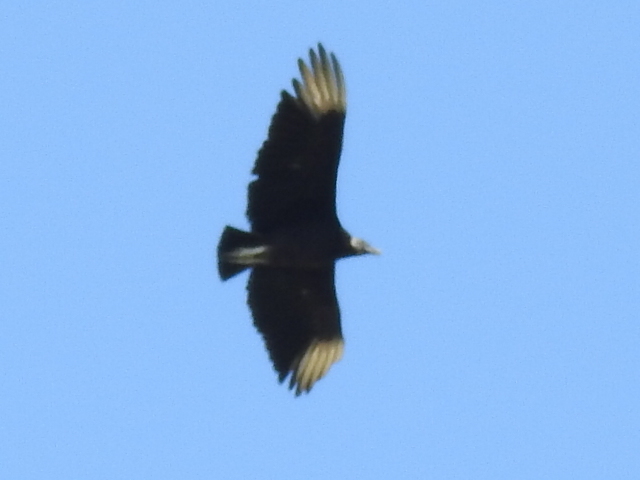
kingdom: Animalia
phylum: Chordata
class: Aves
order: Accipitriformes
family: Cathartidae
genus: Coragyps
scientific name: Coragyps atratus
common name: Black vulture
